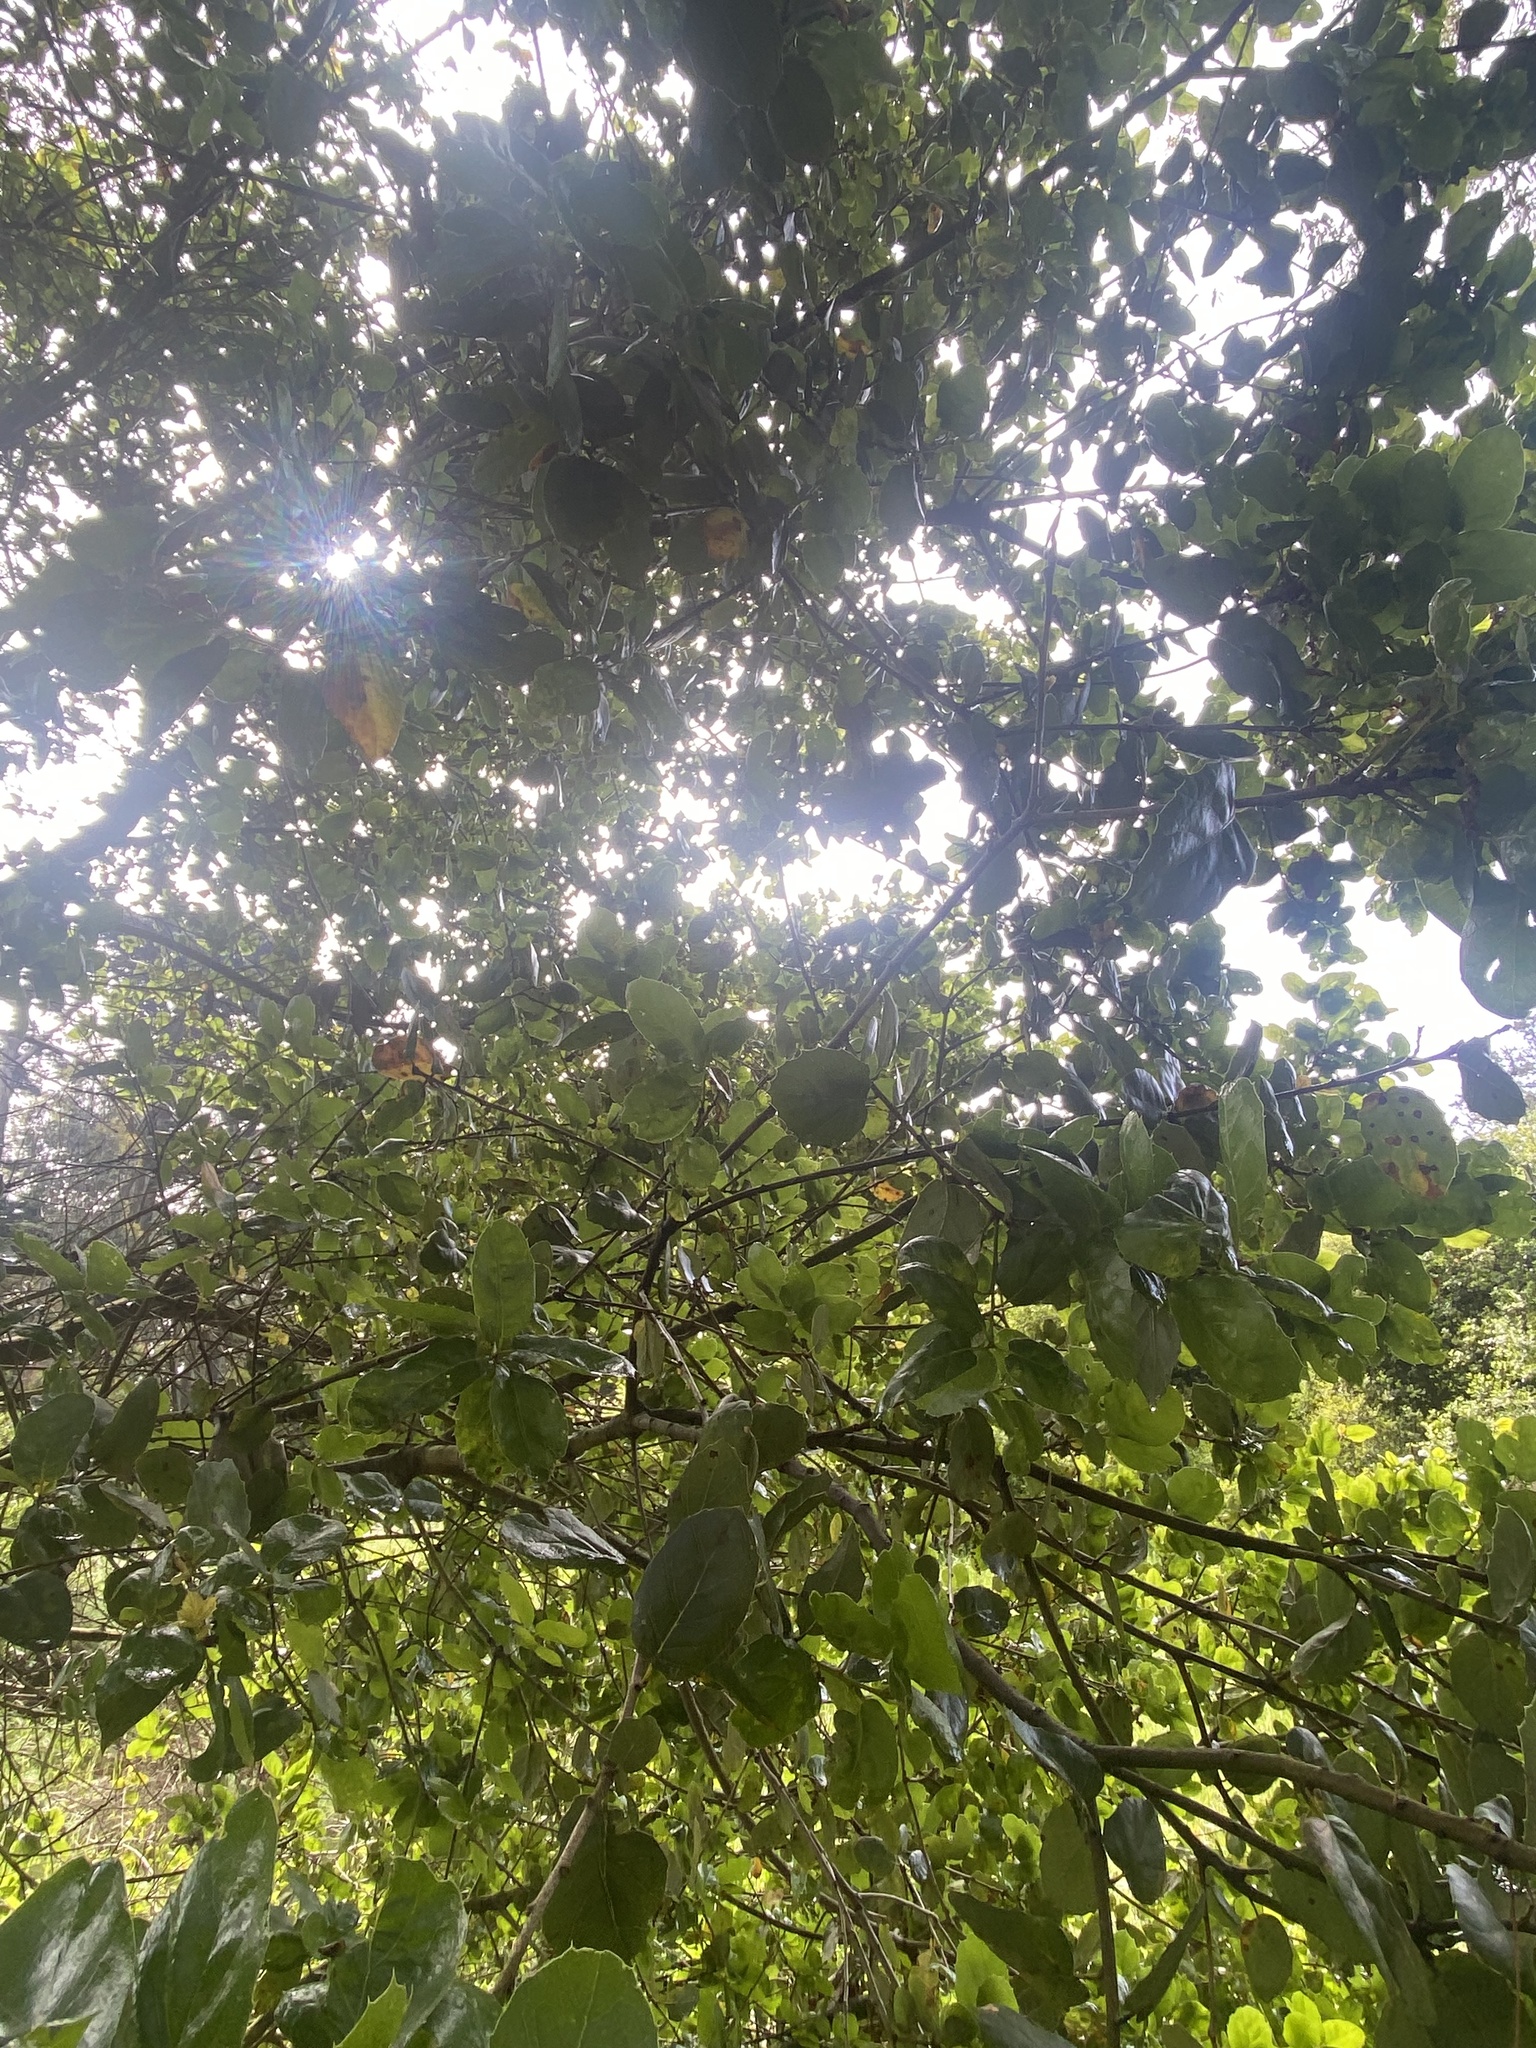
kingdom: Plantae
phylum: Tracheophyta
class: Magnoliopsida
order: Fagales
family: Fagaceae
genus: Quercus
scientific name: Quercus agrifolia
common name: California live oak
